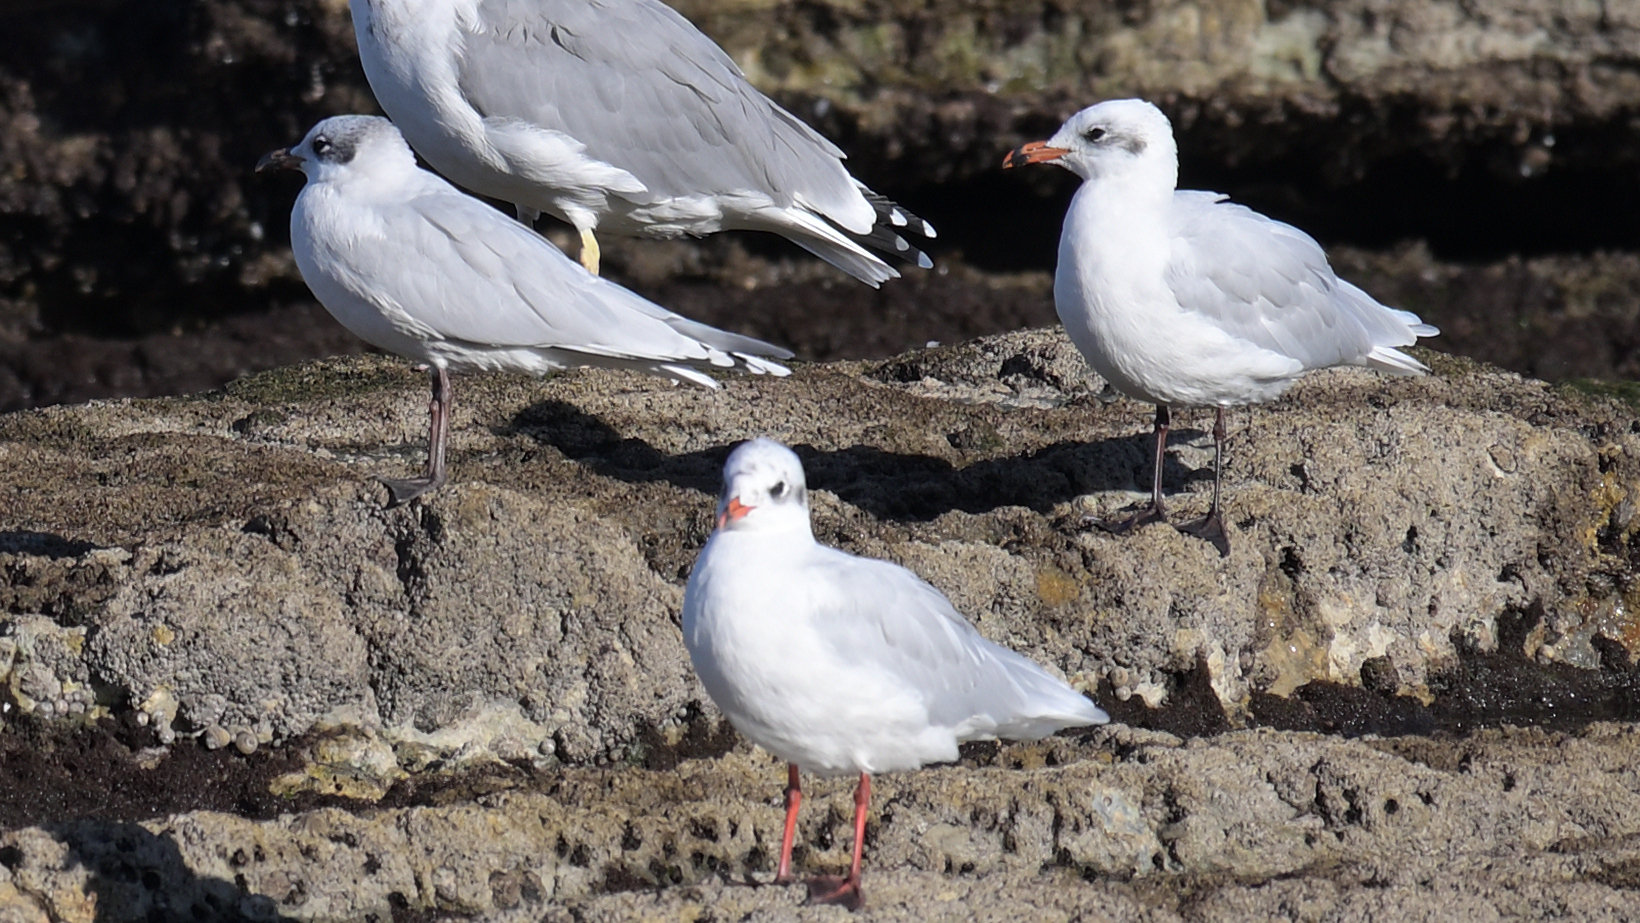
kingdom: Animalia
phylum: Chordata
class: Aves
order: Charadriiformes
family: Laridae
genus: Ichthyaetus
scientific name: Ichthyaetus melanocephalus
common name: Mediterranean gull
